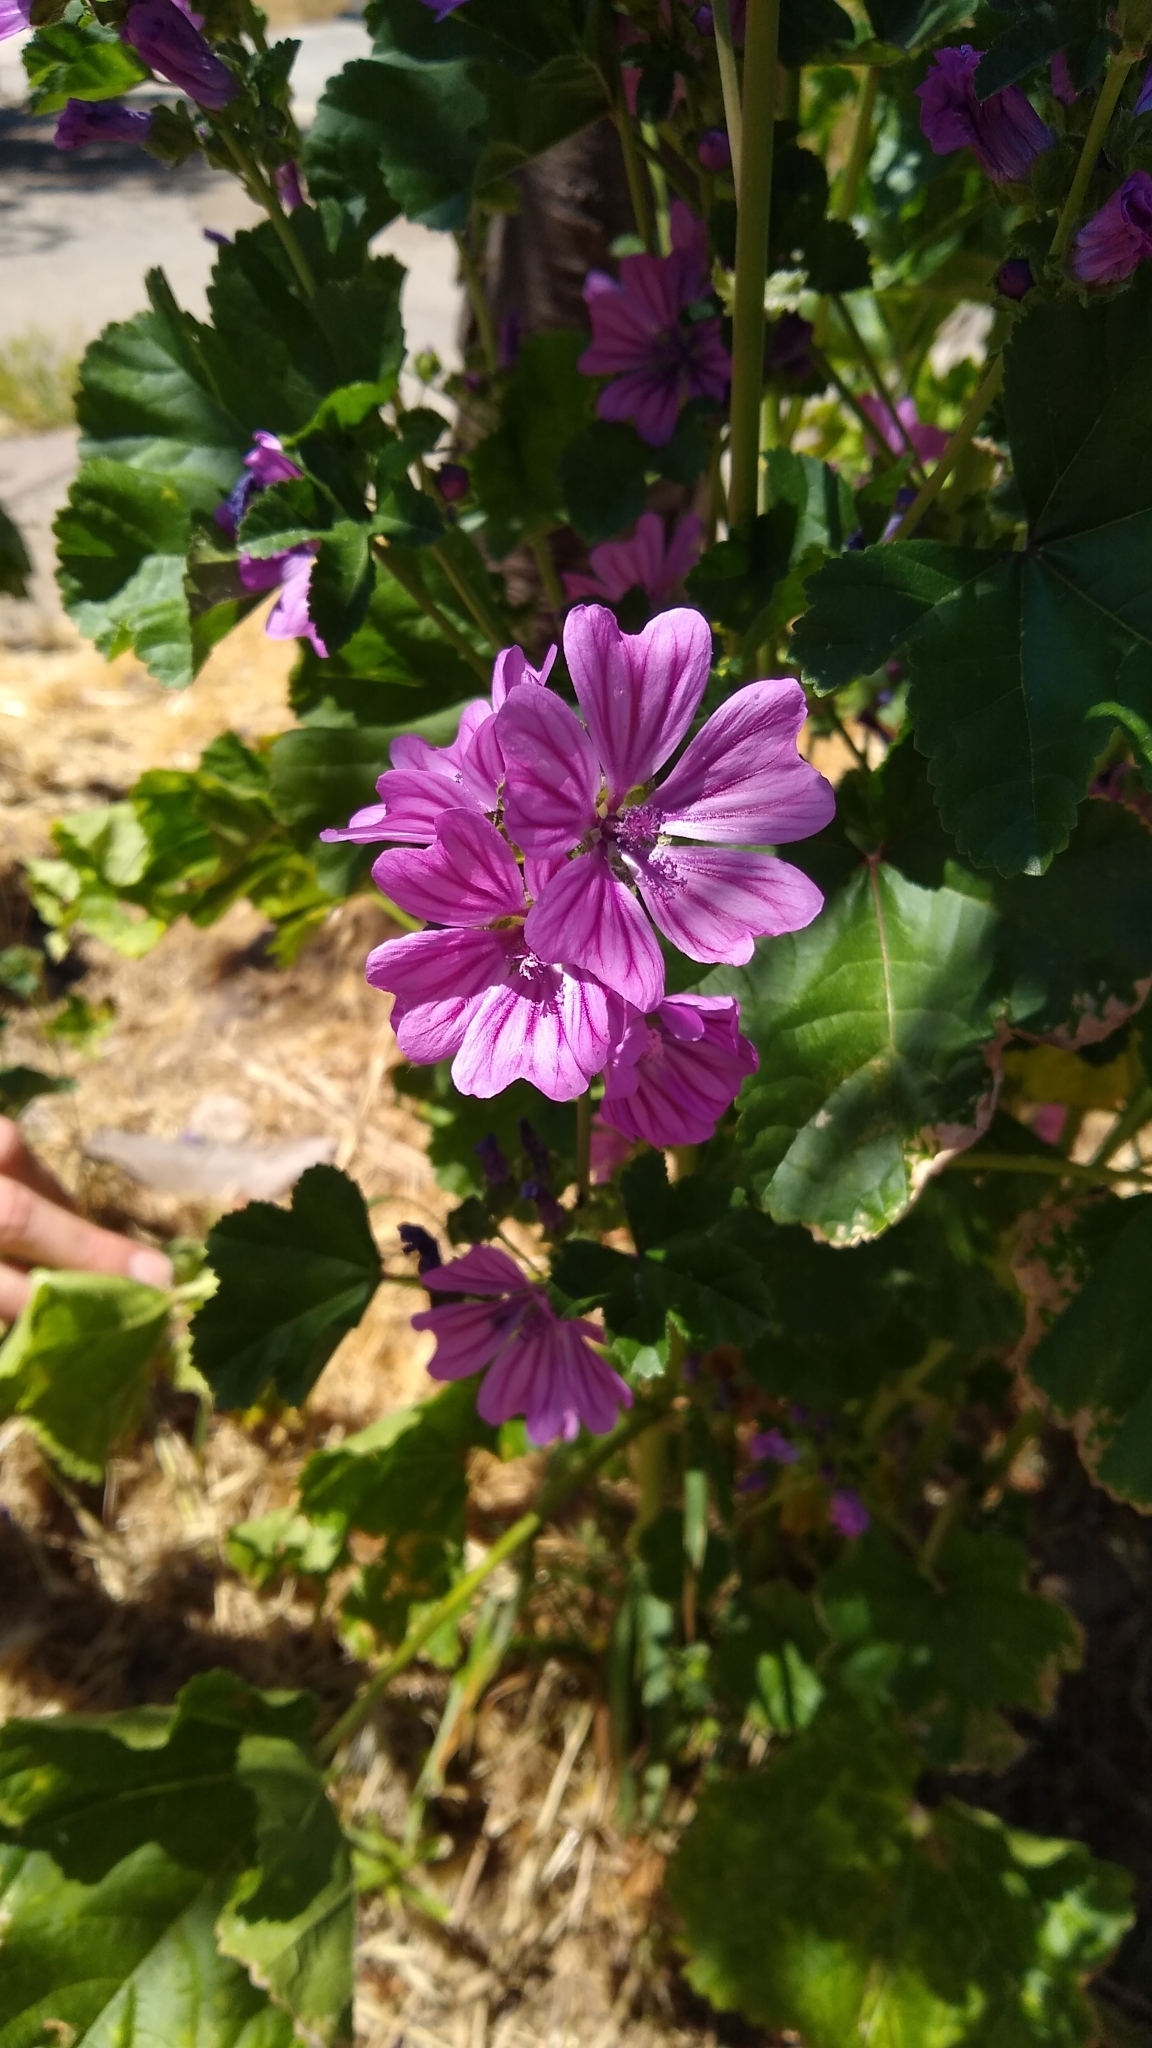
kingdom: Plantae
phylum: Tracheophyta
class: Magnoliopsida
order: Malvales
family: Malvaceae
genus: Malva
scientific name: Malva sylvestris
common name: Common mallow
